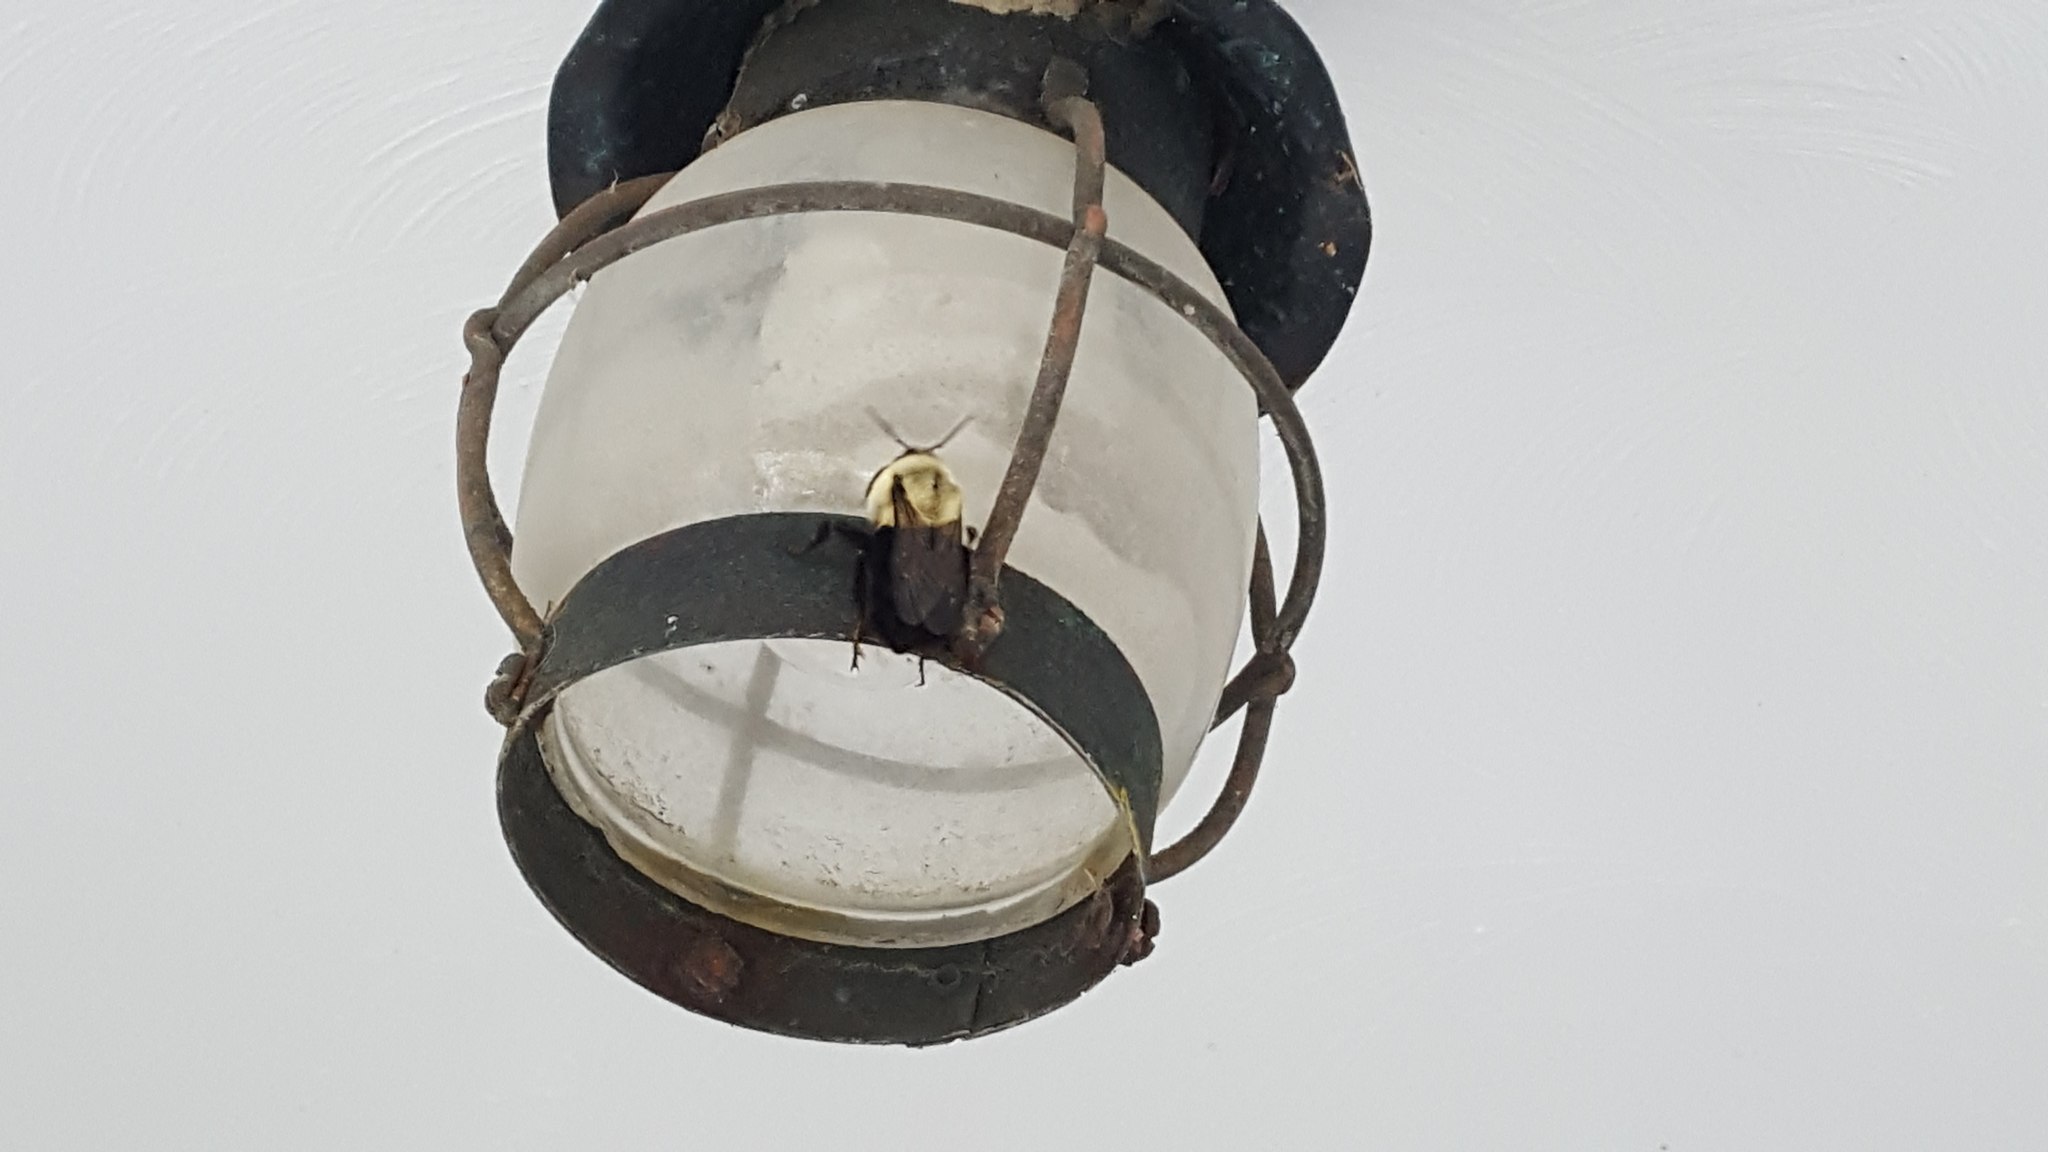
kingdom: Animalia
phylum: Arthropoda
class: Insecta
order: Hymenoptera
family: Apidae
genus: Bombus
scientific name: Bombus impatiens
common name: Common eastern bumble bee
